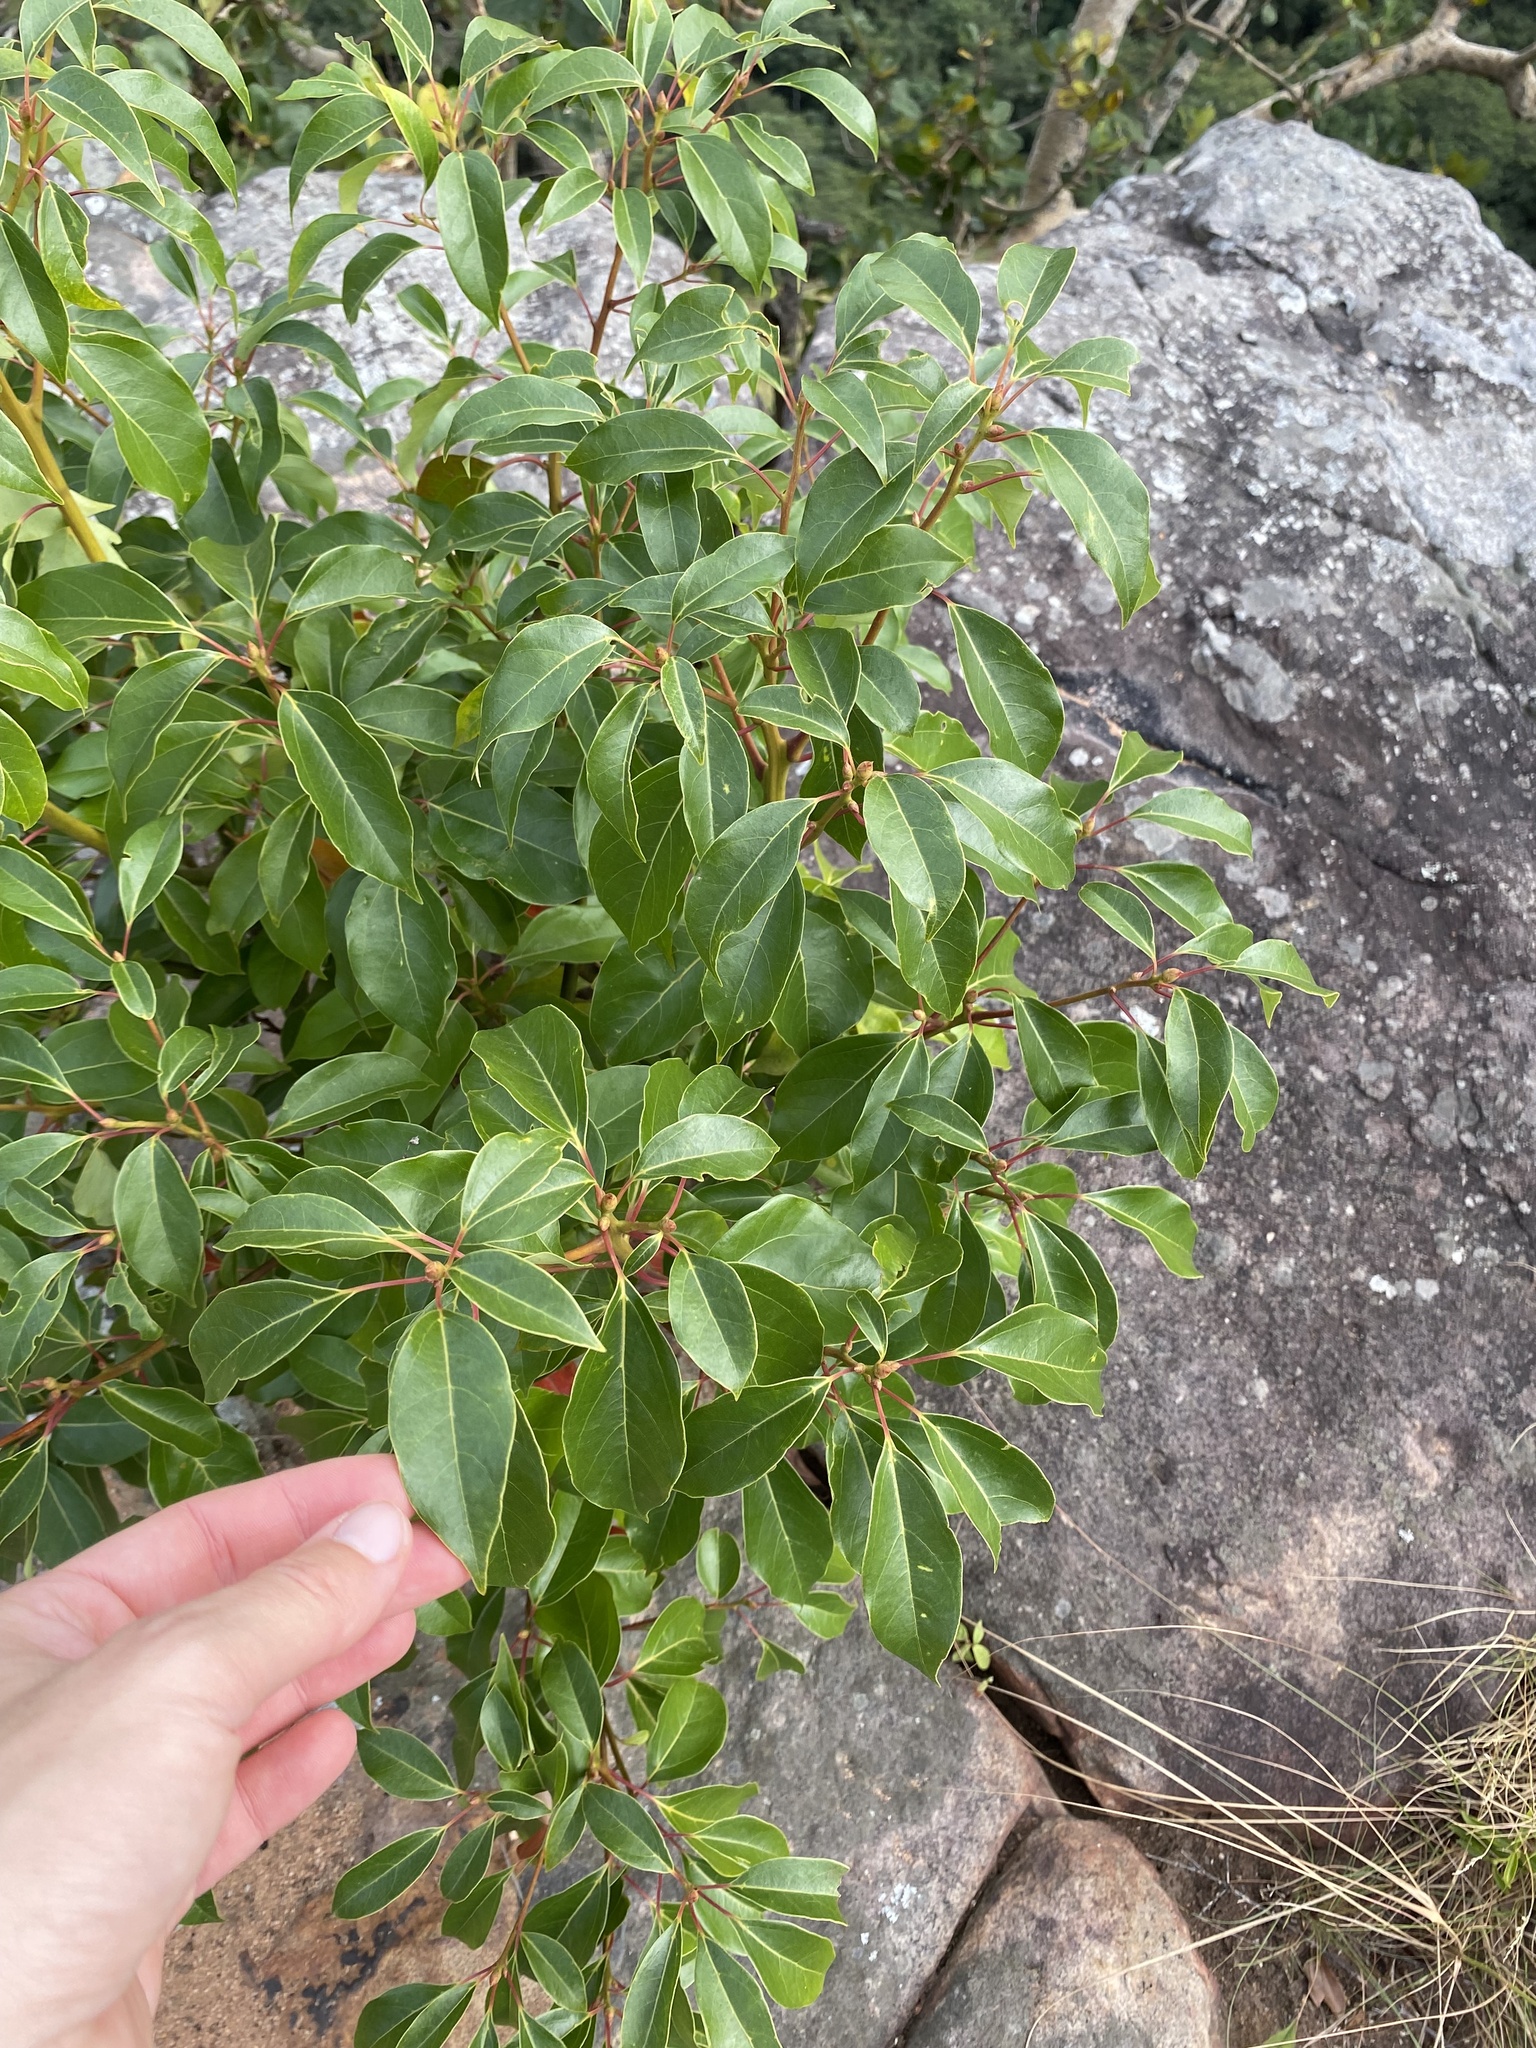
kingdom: Plantae
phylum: Tracheophyta
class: Magnoliopsida
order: Laurales
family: Lauraceae
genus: Cinnamomum
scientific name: Cinnamomum camphora
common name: Camphortree
